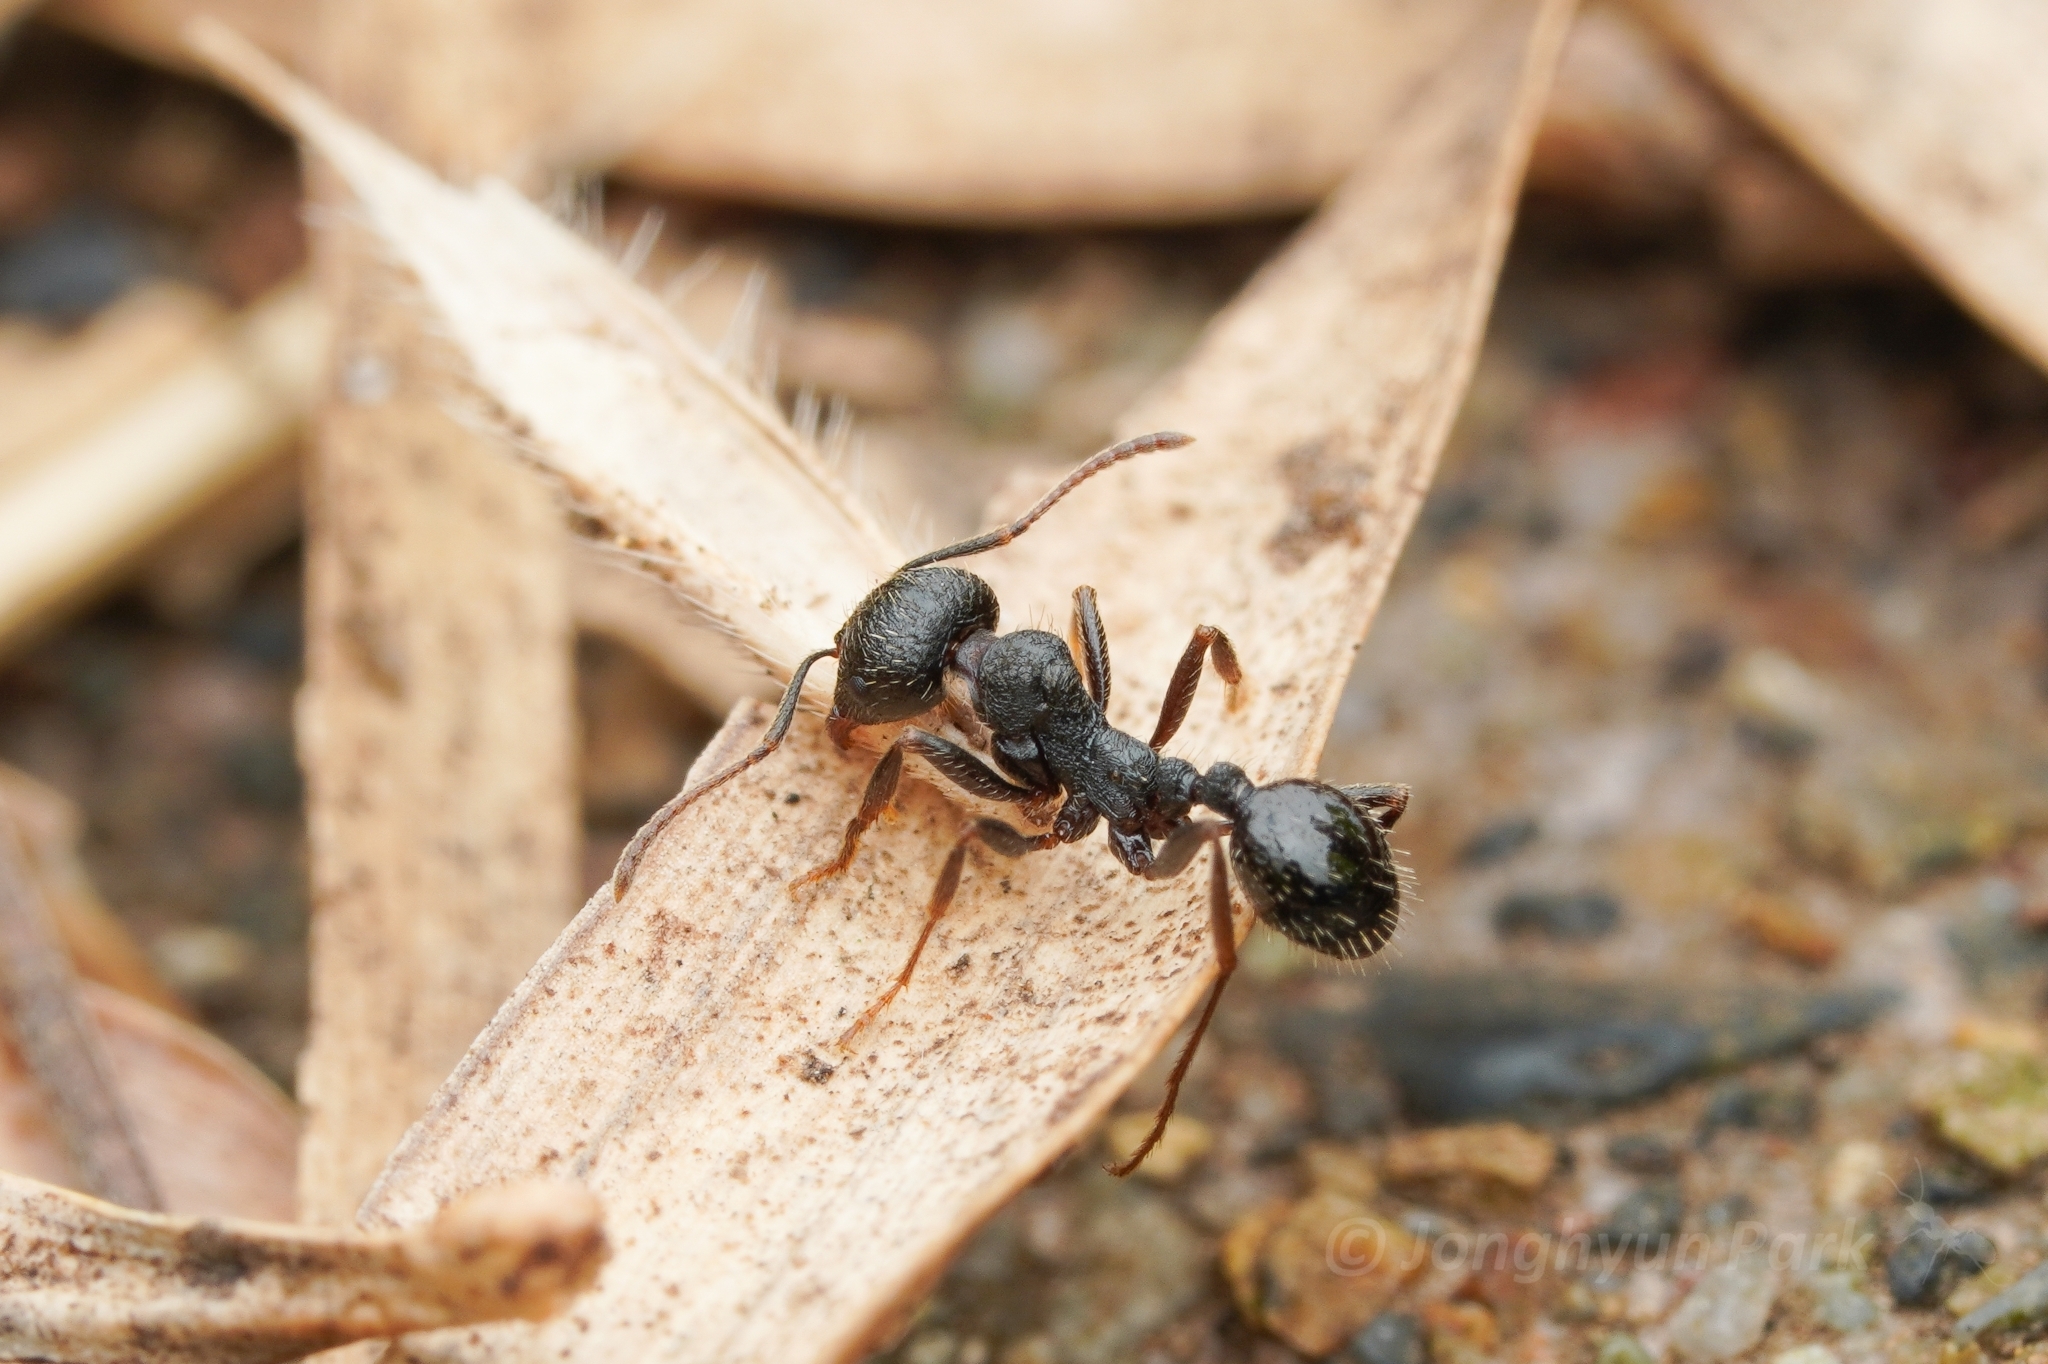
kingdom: Animalia
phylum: Arthropoda
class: Insecta
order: Hymenoptera
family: Formicidae
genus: Messor
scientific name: Messor aciculatus
